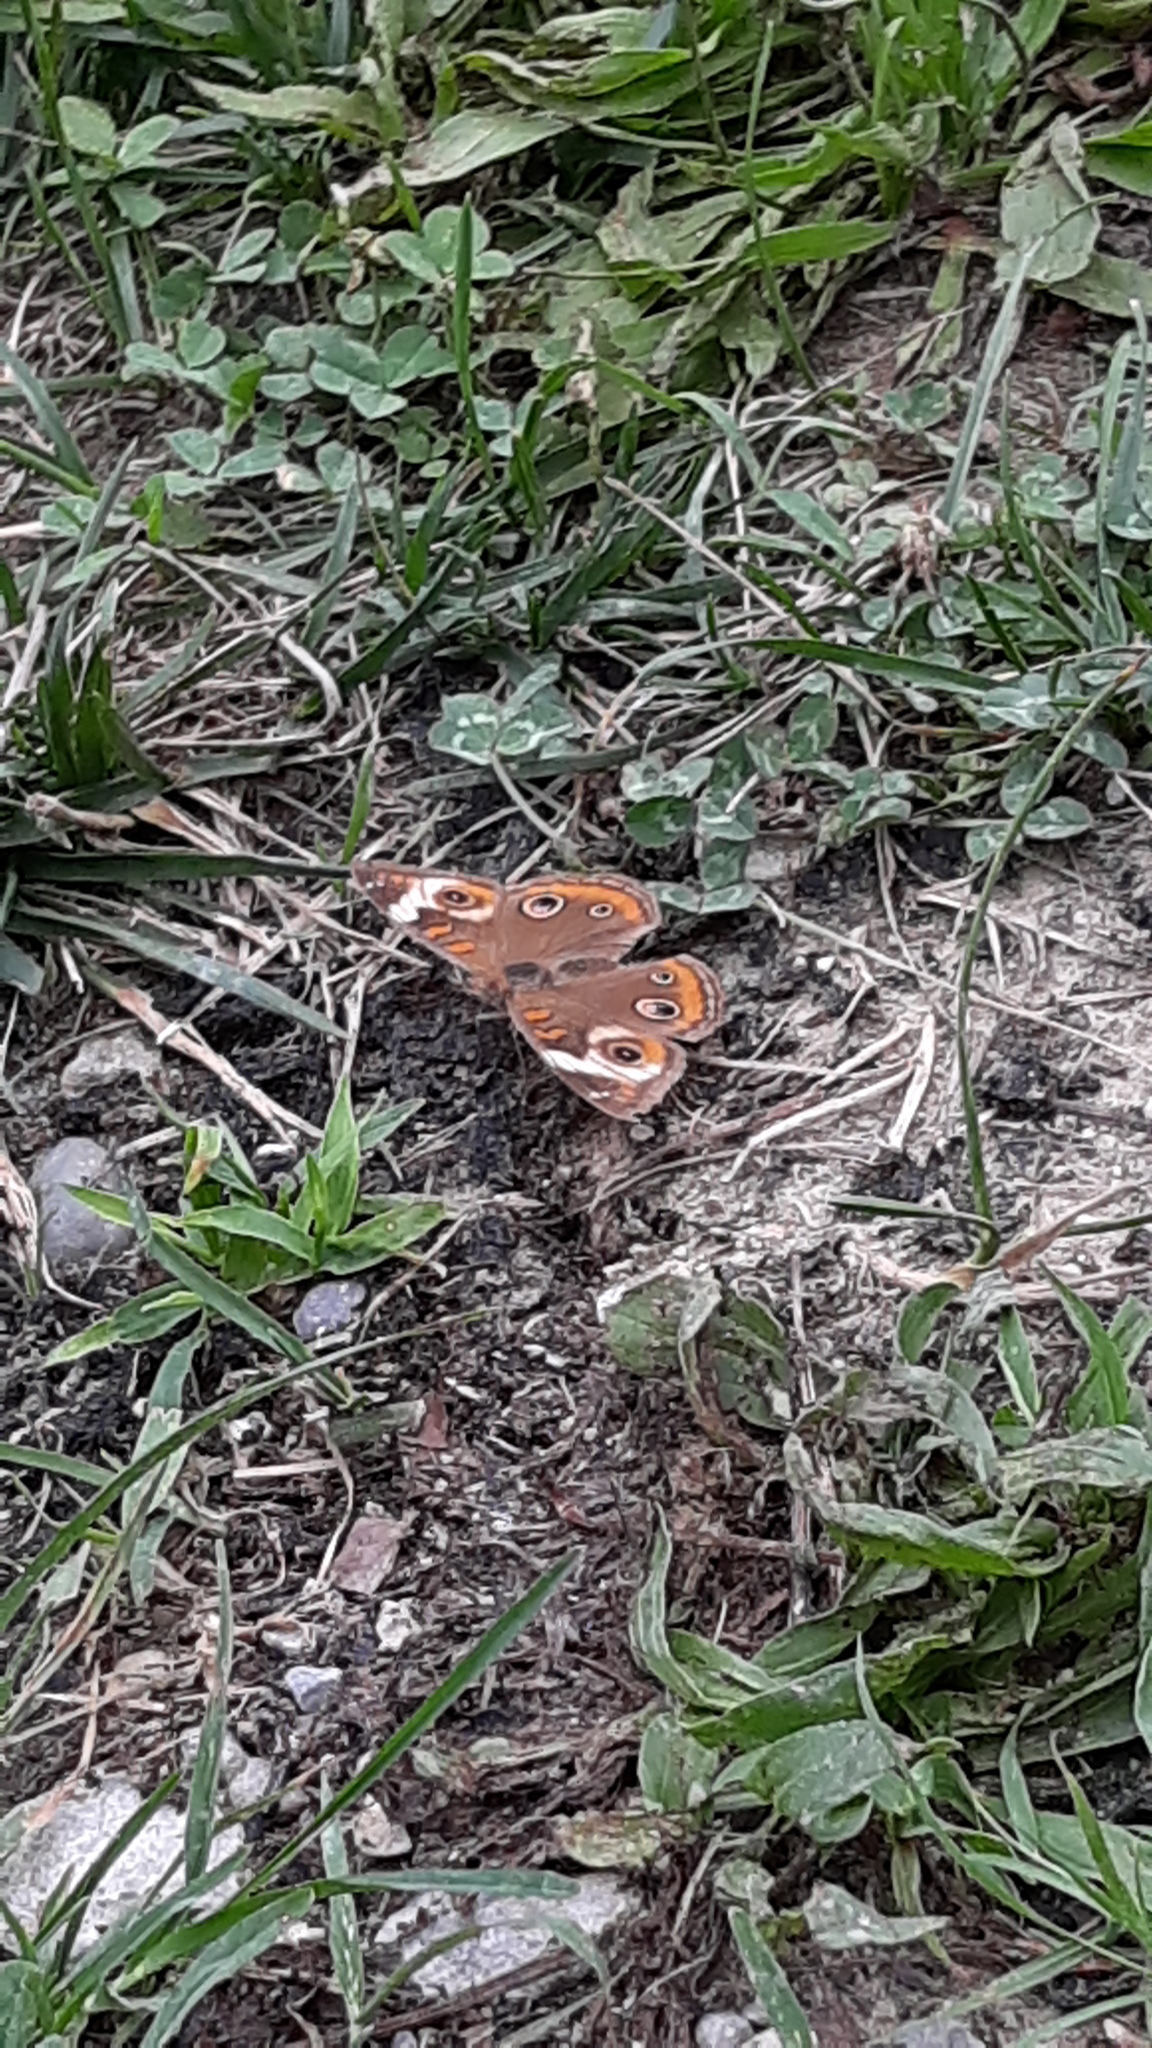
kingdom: Animalia
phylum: Arthropoda
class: Insecta
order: Lepidoptera
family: Nymphalidae
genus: Junonia
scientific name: Junonia coenia
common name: Common buckeye
